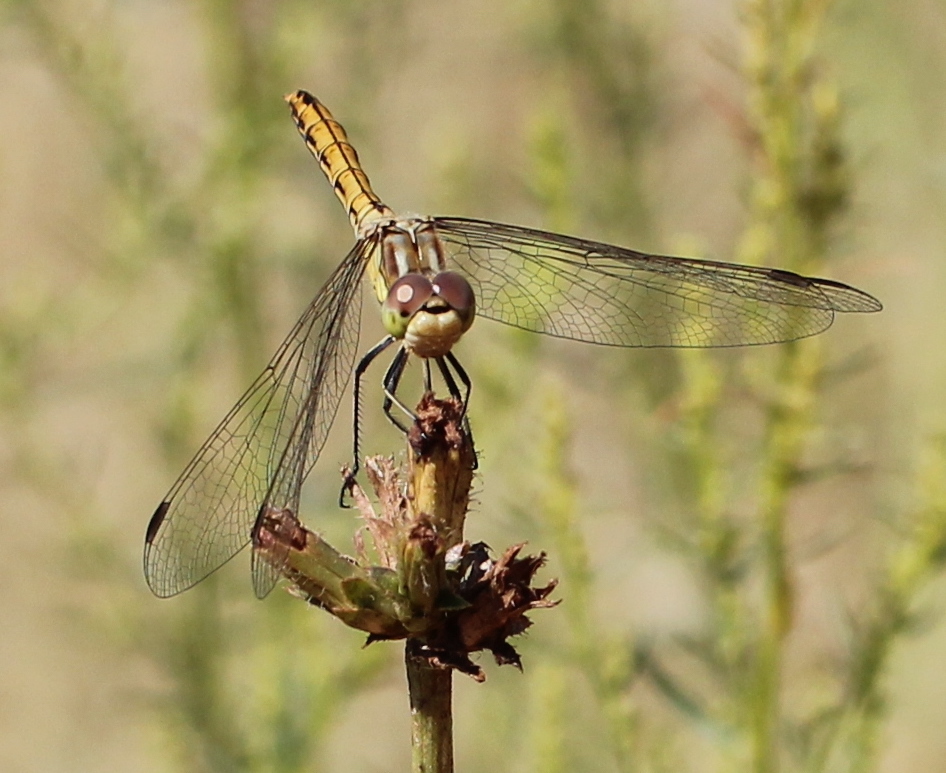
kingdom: Animalia
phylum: Arthropoda
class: Insecta
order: Odonata
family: Libellulidae
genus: Sympetrum
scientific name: Sympetrum vulgatum
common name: Vagrant darter
